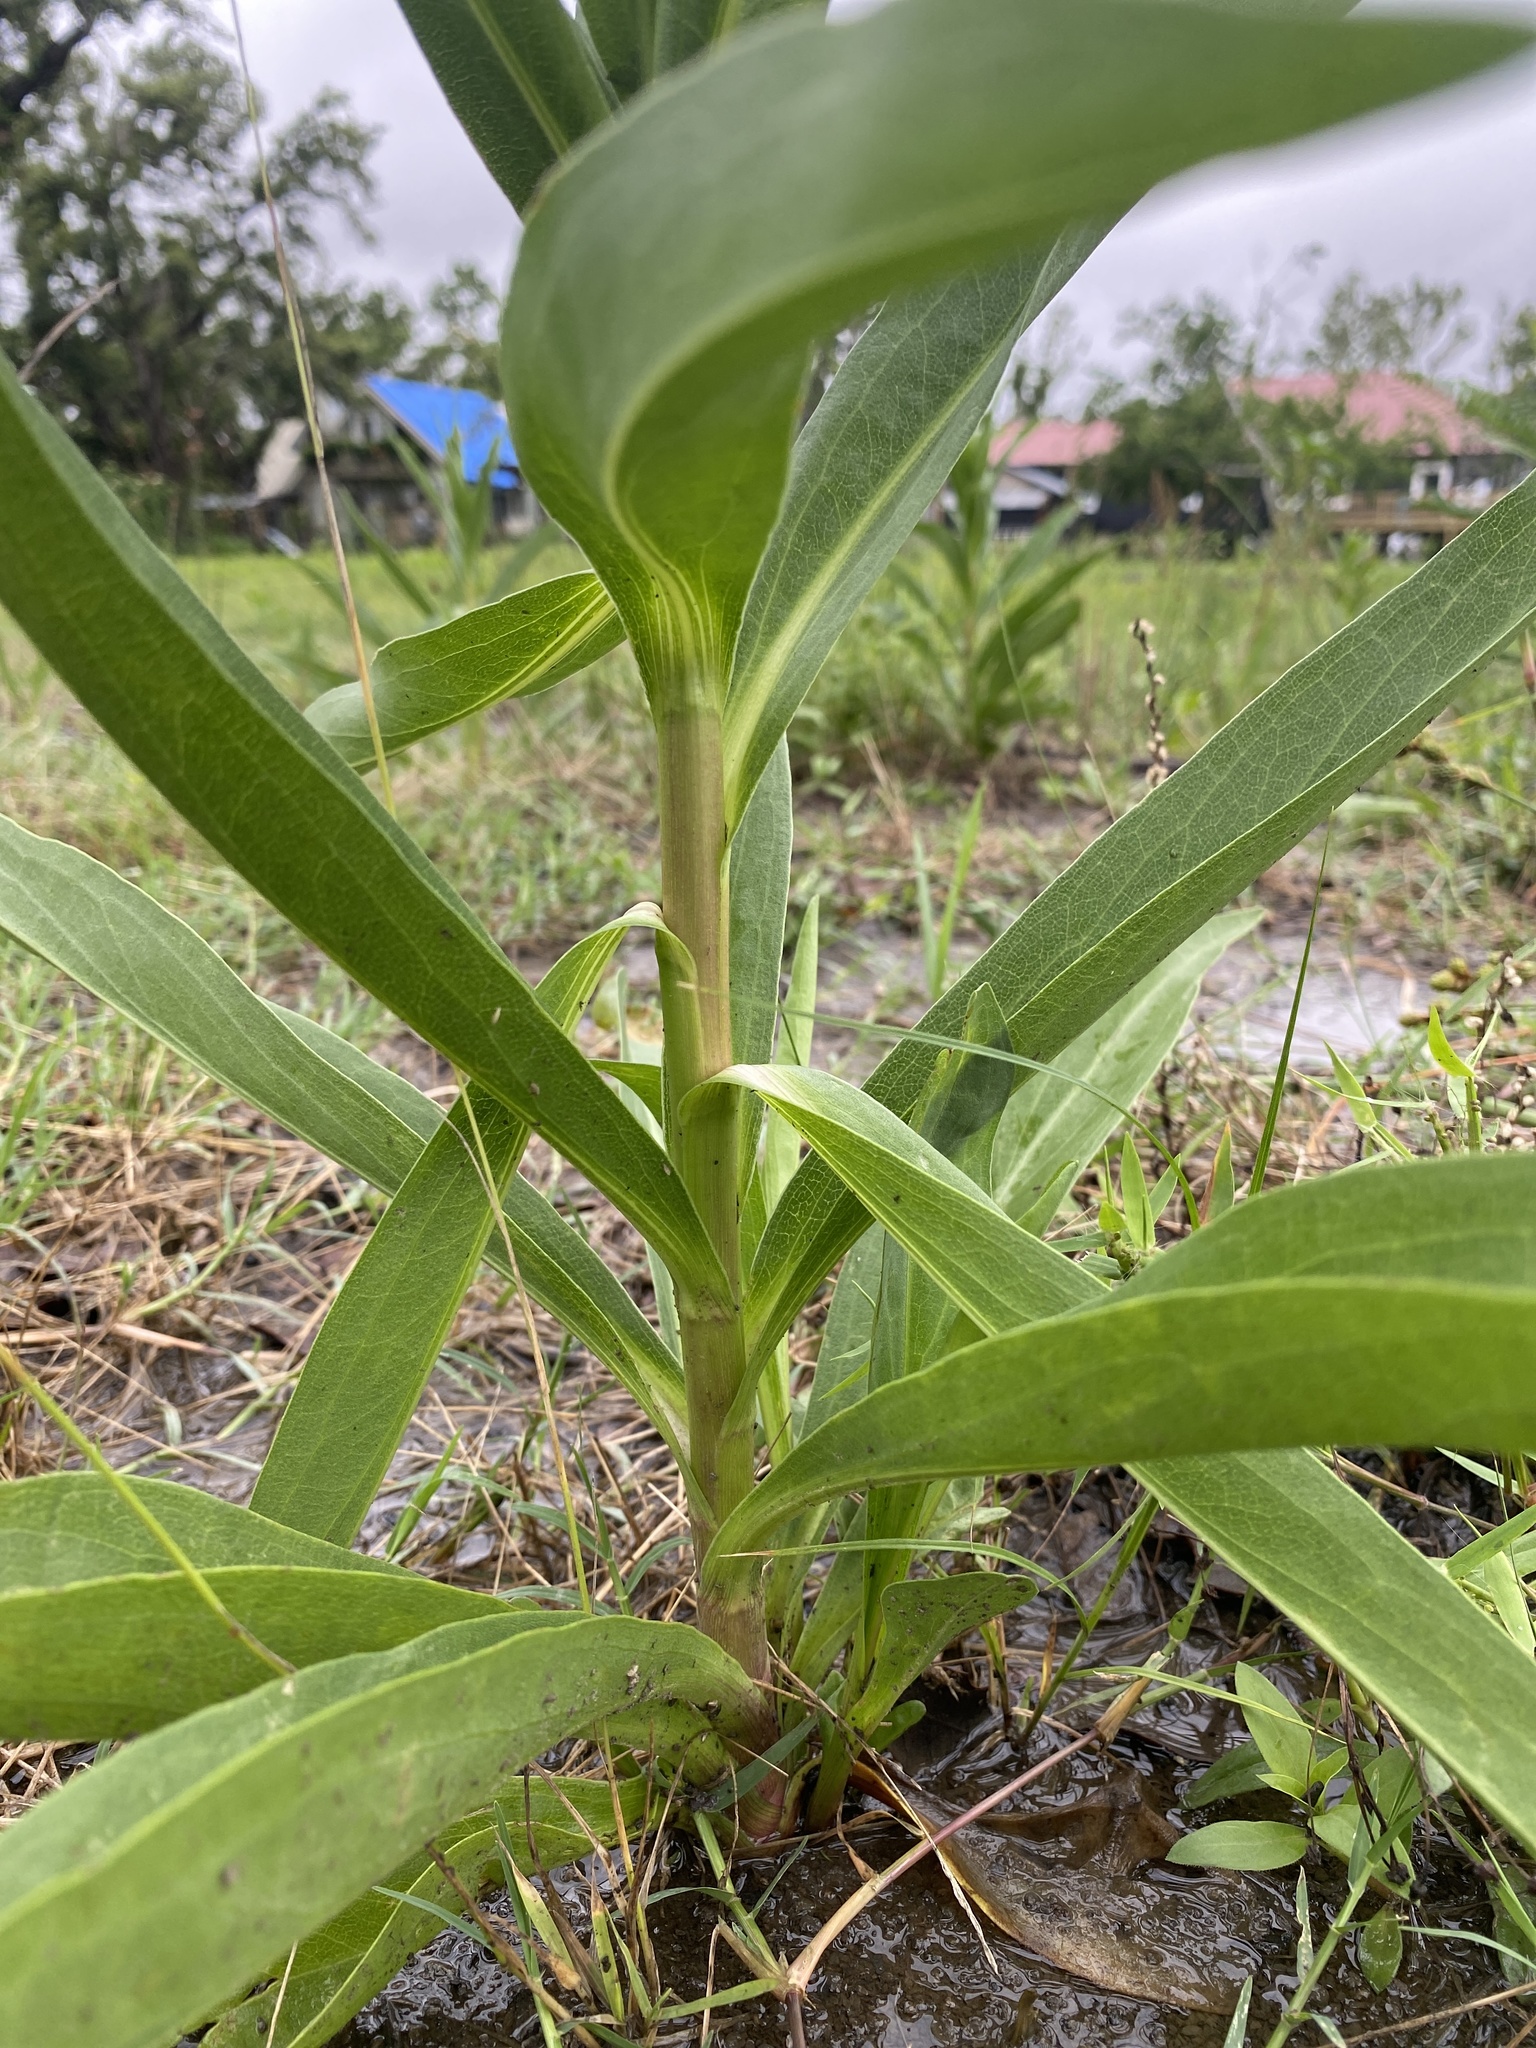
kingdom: Plantae
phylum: Tracheophyta
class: Magnoliopsida
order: Asterales
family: Asteraceae
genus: Solidago
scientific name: Solidago mexicana
